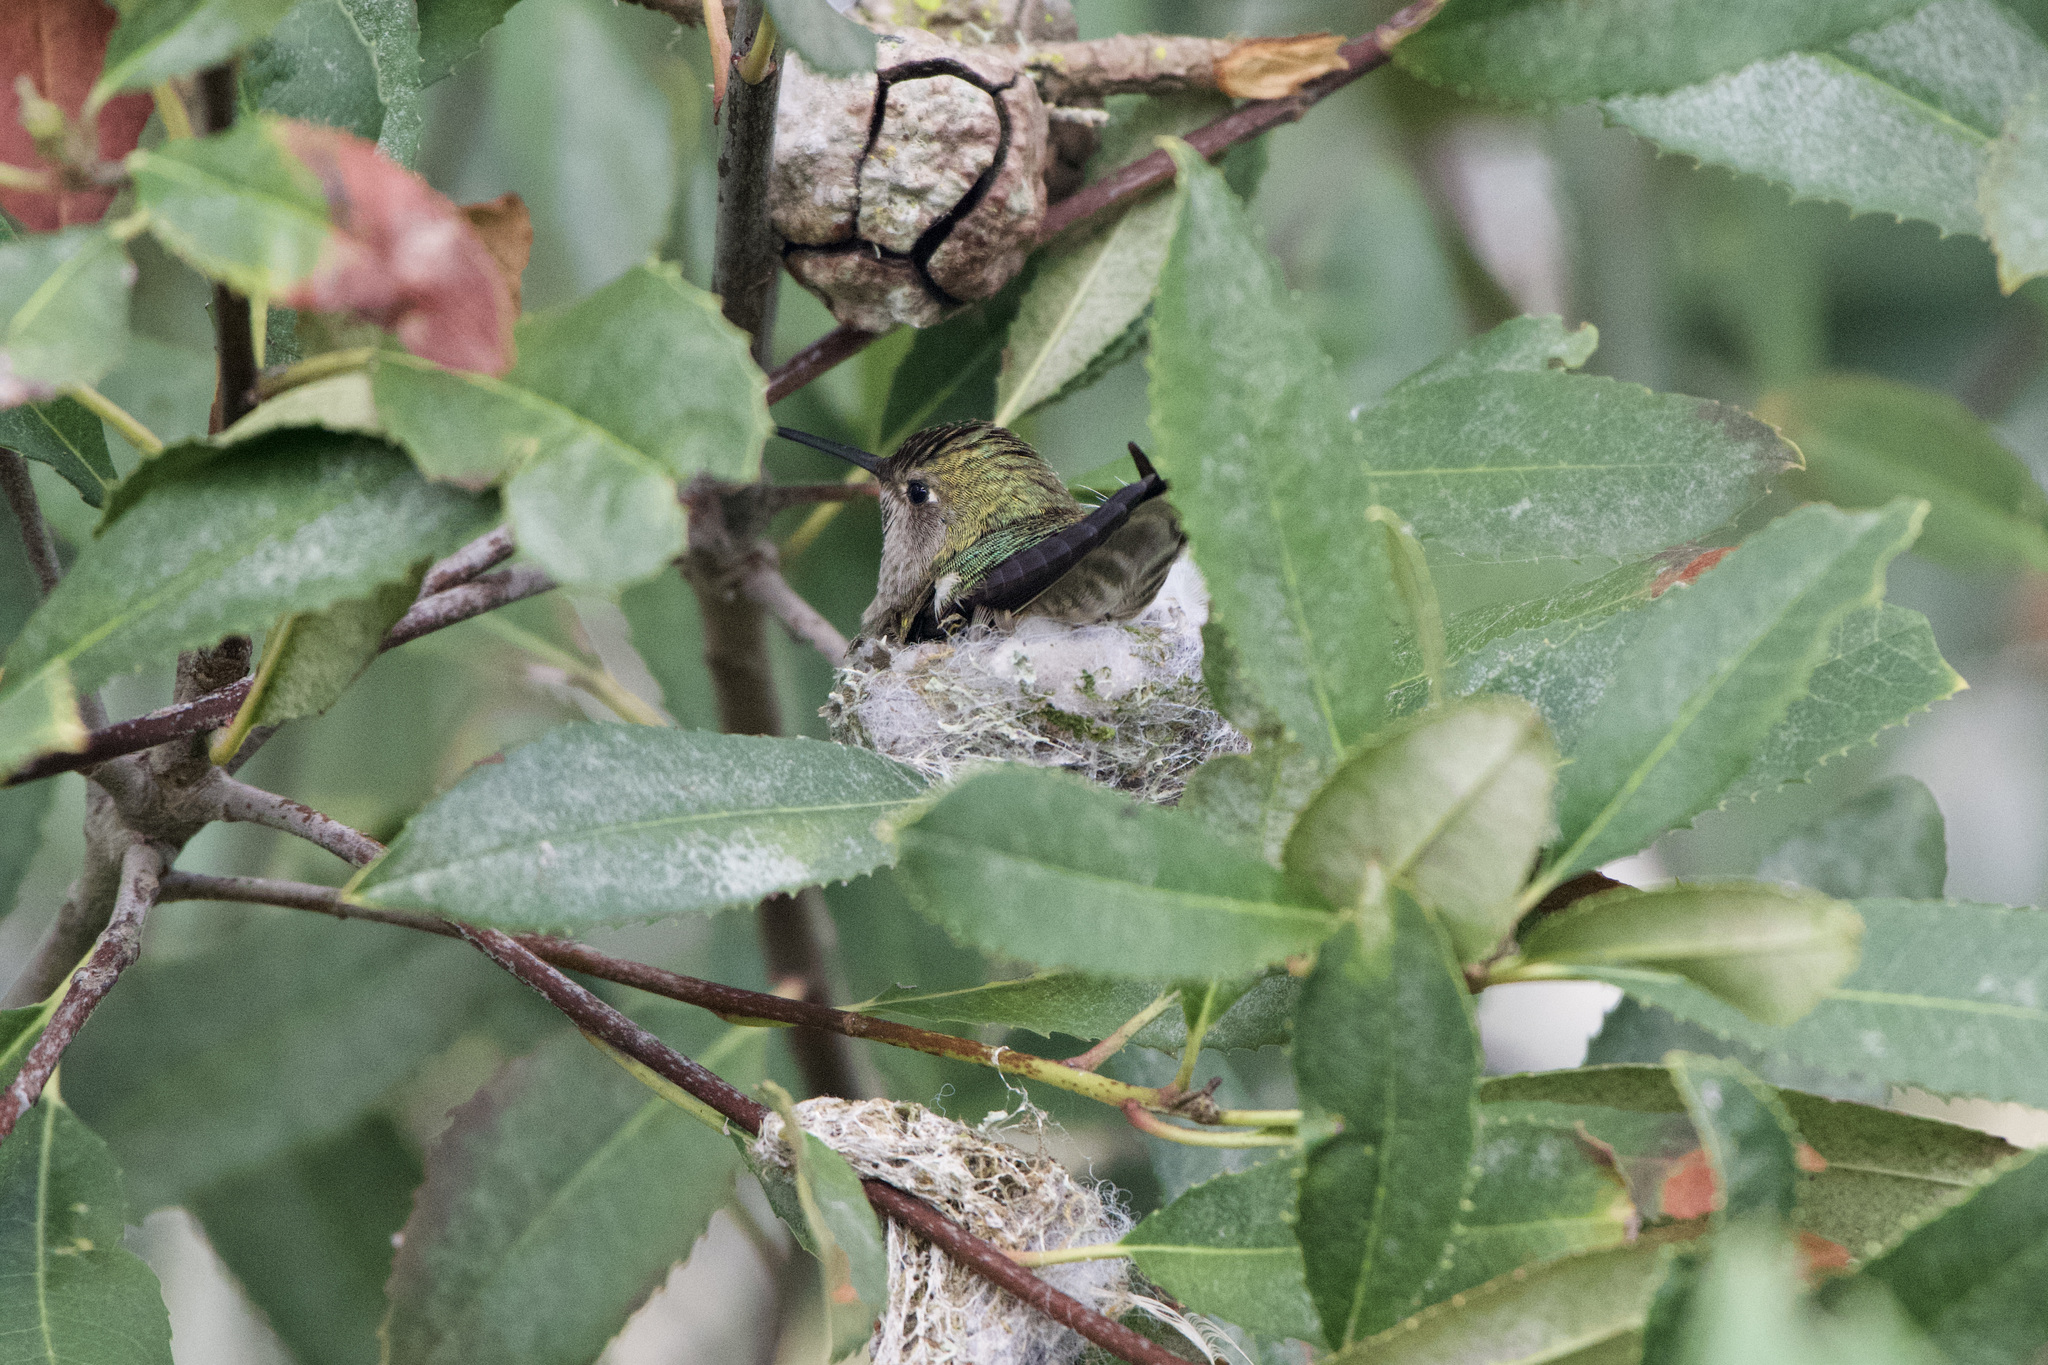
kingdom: Animalia
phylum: Chordata
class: Aves
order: Apodiformes
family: Trochilidae
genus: Calypte
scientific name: Calypte anna
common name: Anna's hummingbird
